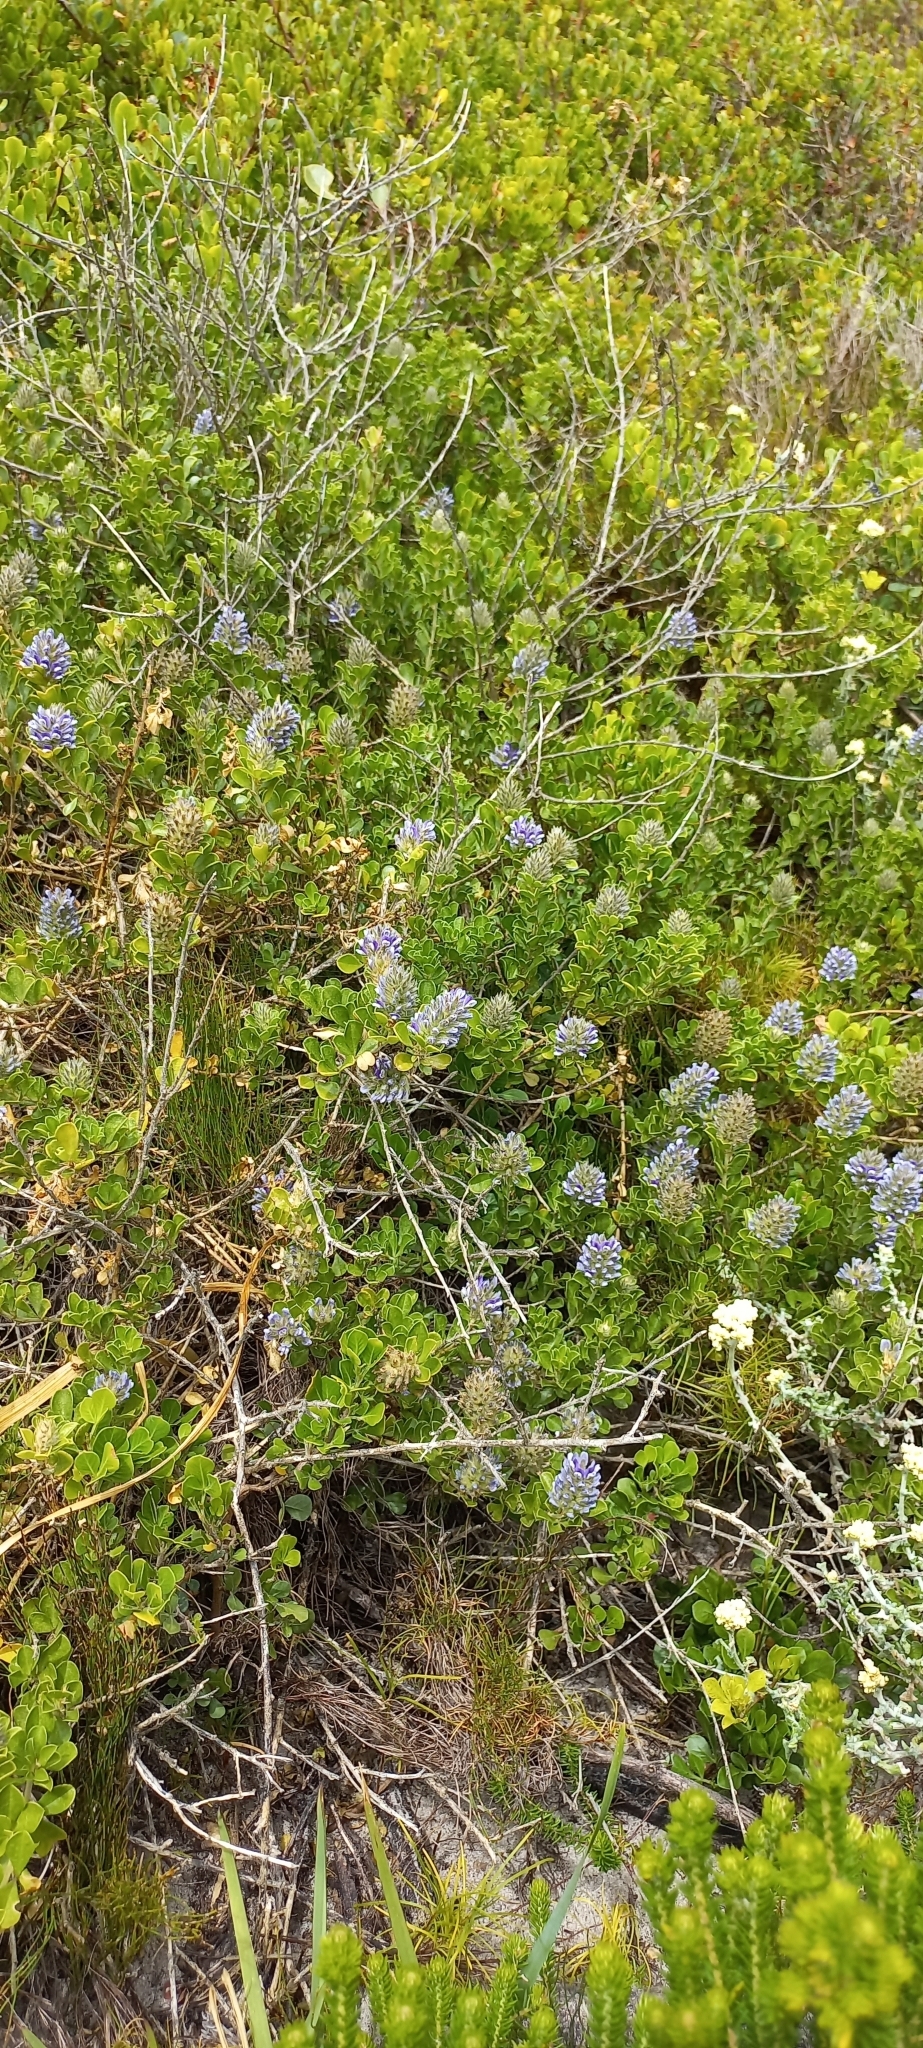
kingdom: Plantae
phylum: Tracheophyta
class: Magnoliopsida
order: Fabales
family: Fabaceae
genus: Psoralea
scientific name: Psoralea bracteolata
